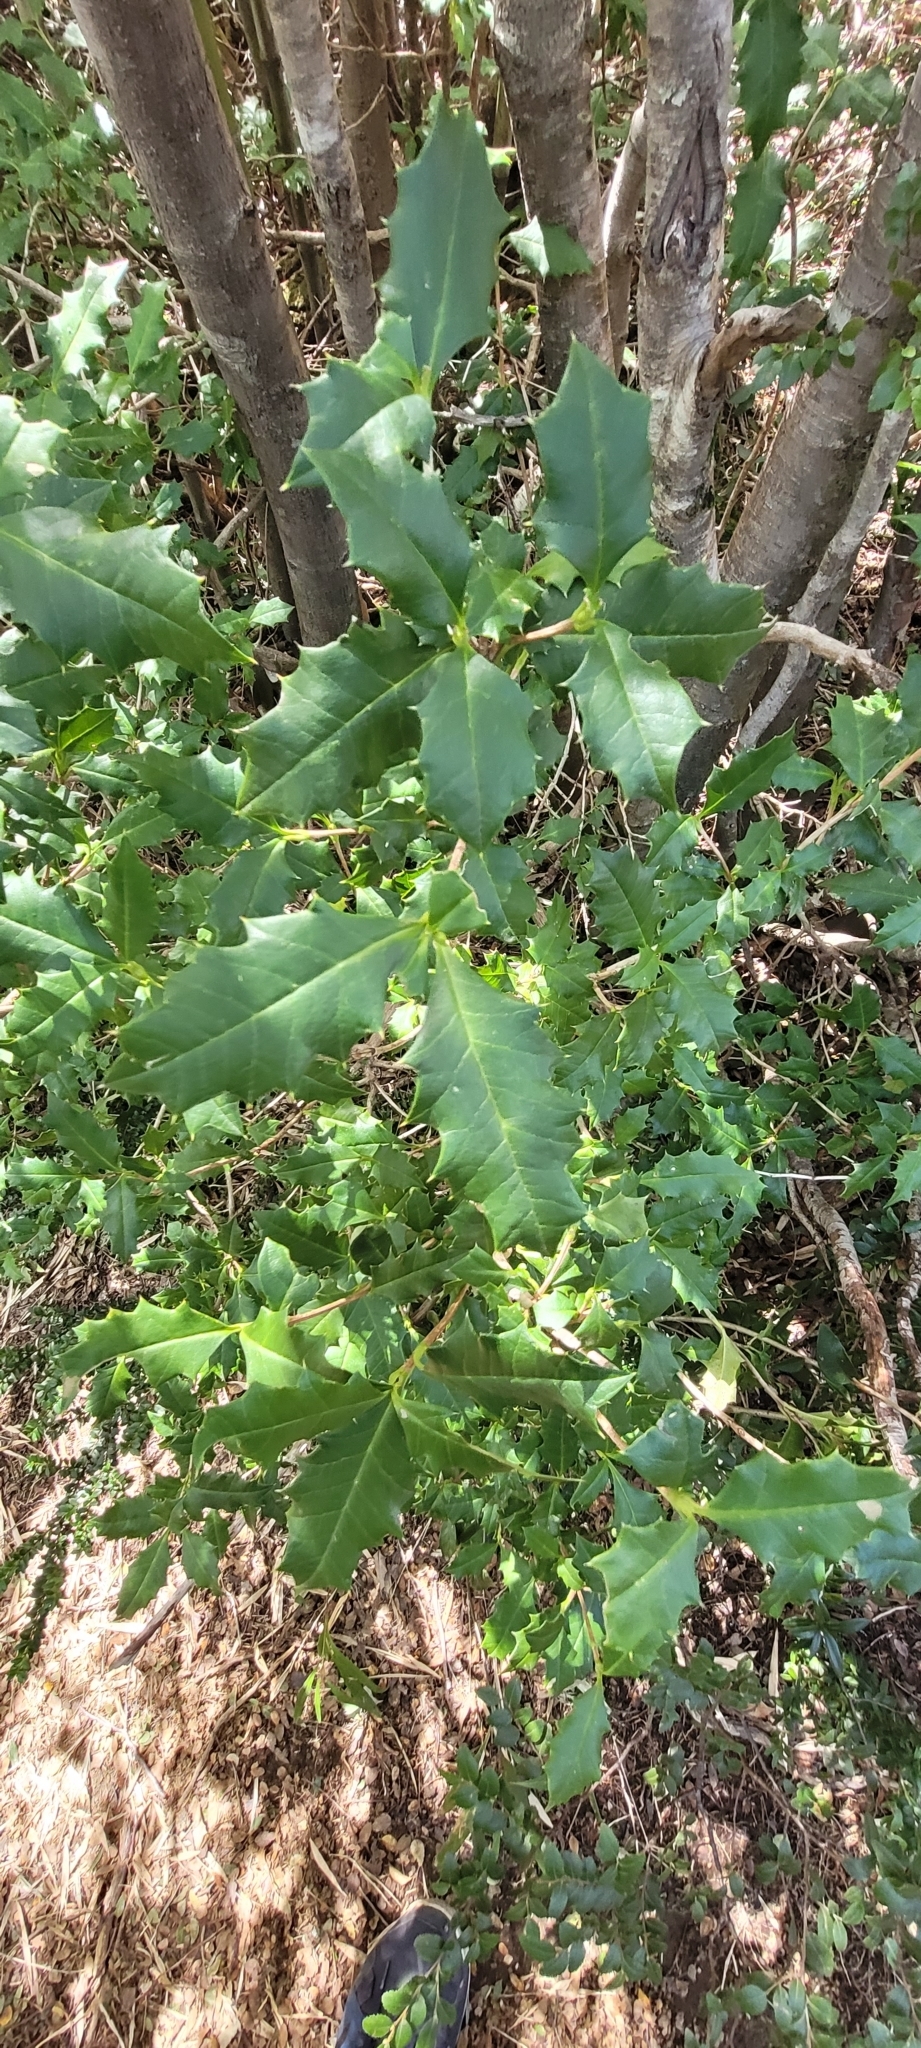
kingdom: Plantae
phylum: Tracheophyta
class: Magnoliopsida
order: Bruniales
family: Columelliaceae
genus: Desfontainia
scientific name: Desfontainia fulgens
